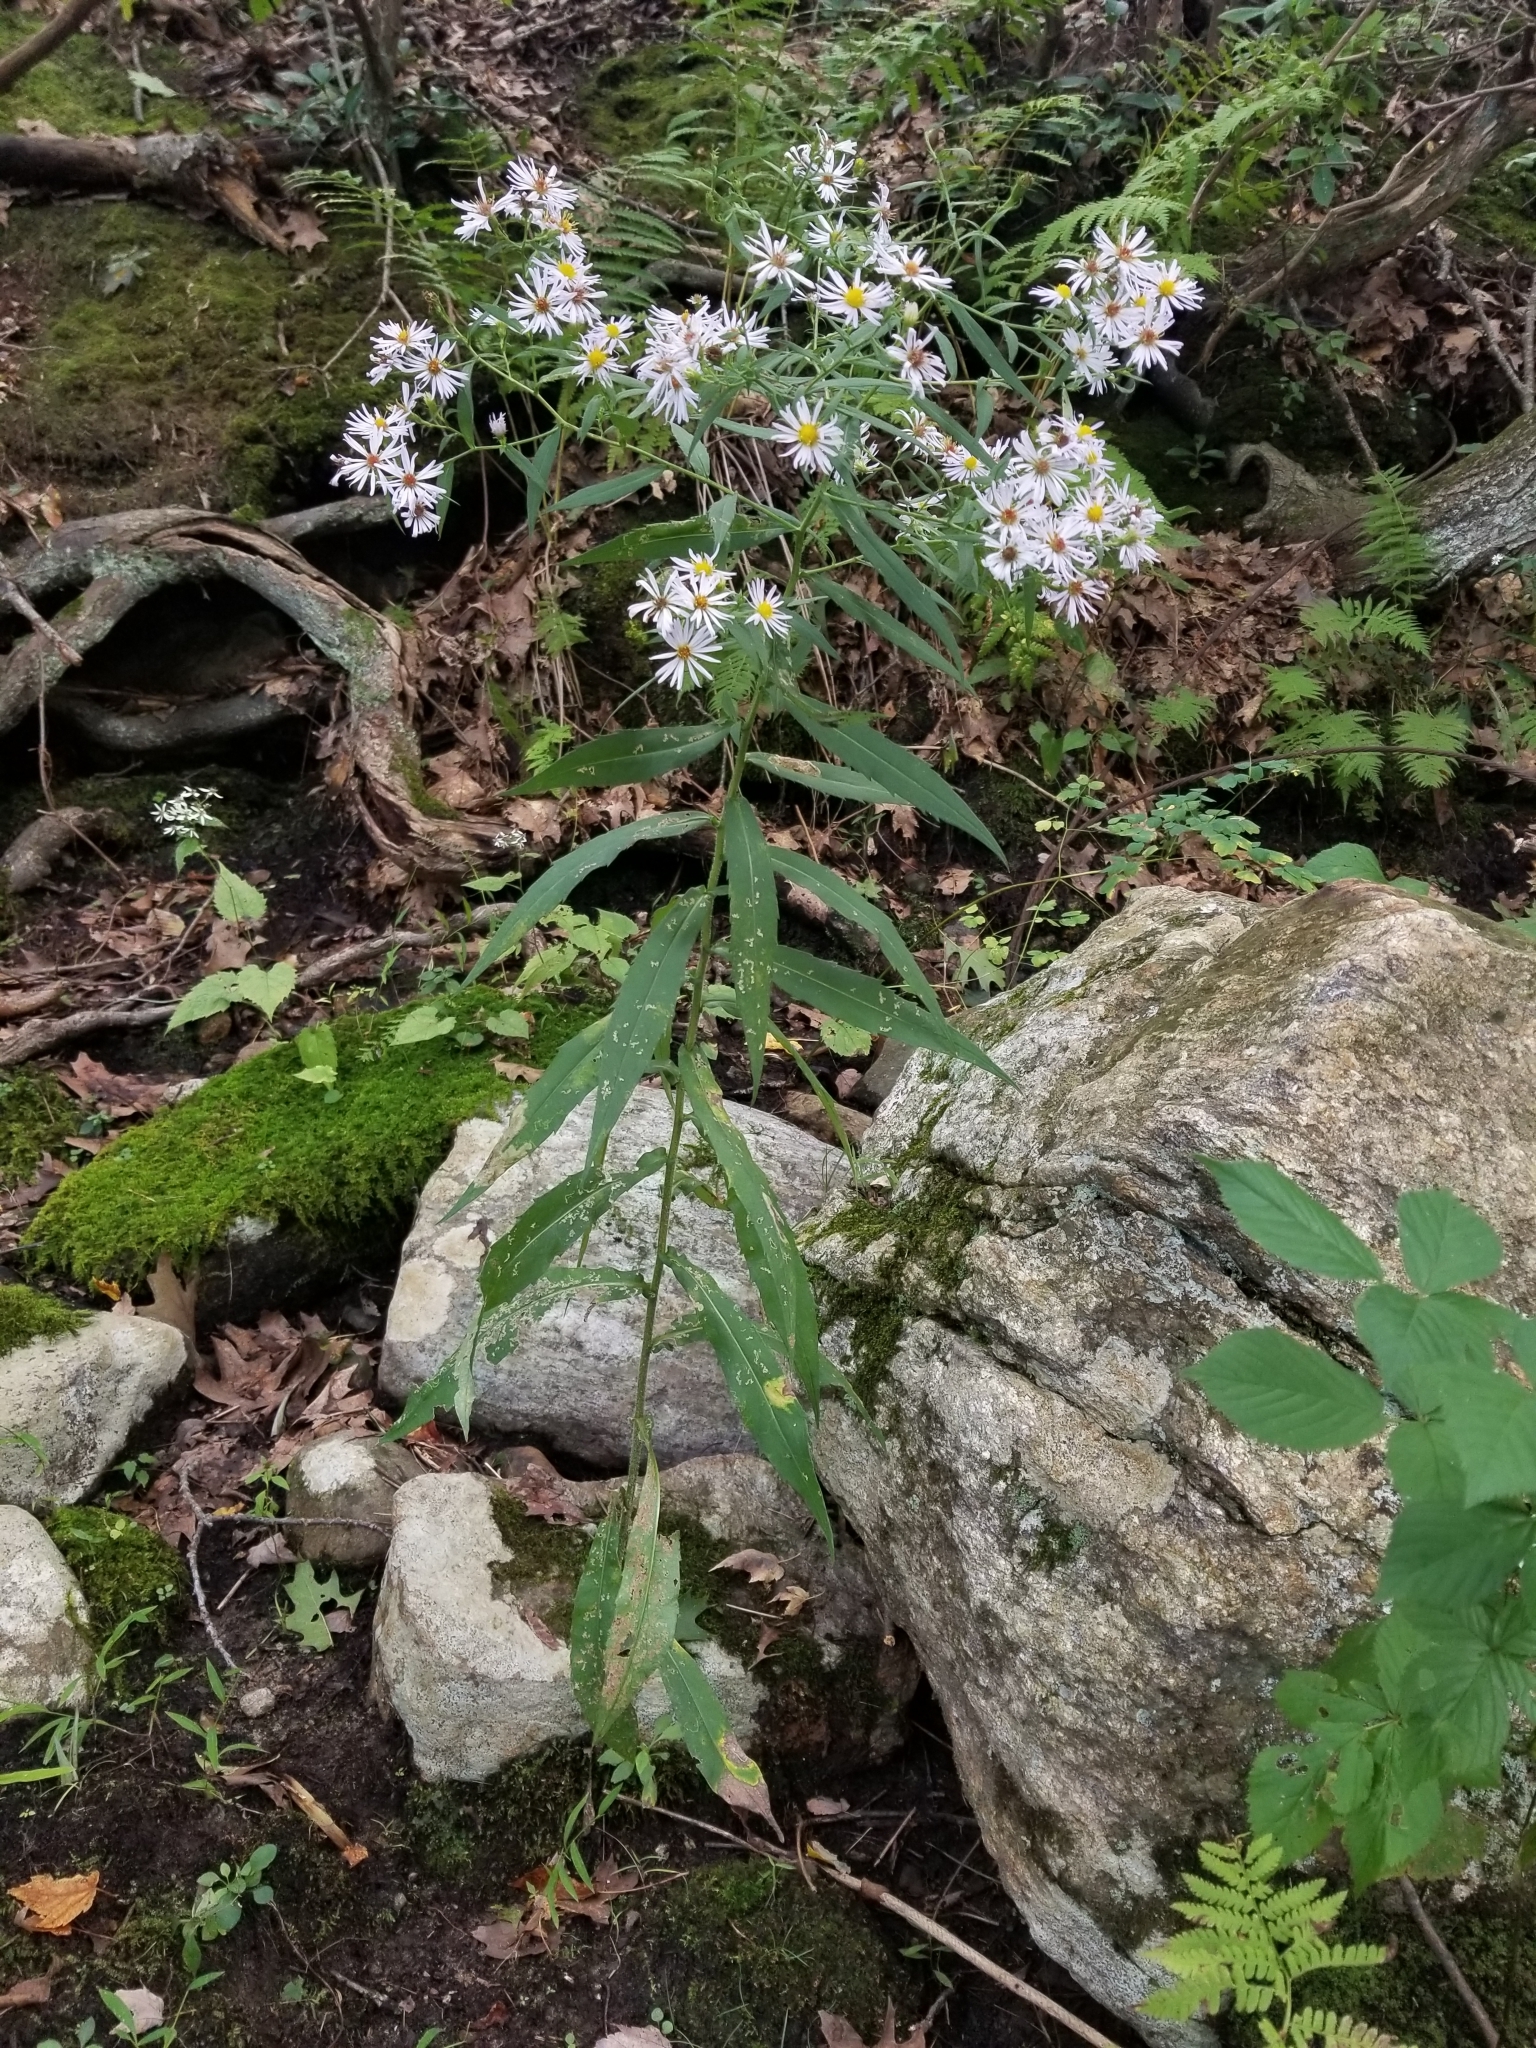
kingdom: Plantae
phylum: Tracheophyta
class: Magnoliopsida
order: Asterales
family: Asteraceae
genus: Symphyotrichum
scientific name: Symphyotrichum puniceum
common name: Bog aster
